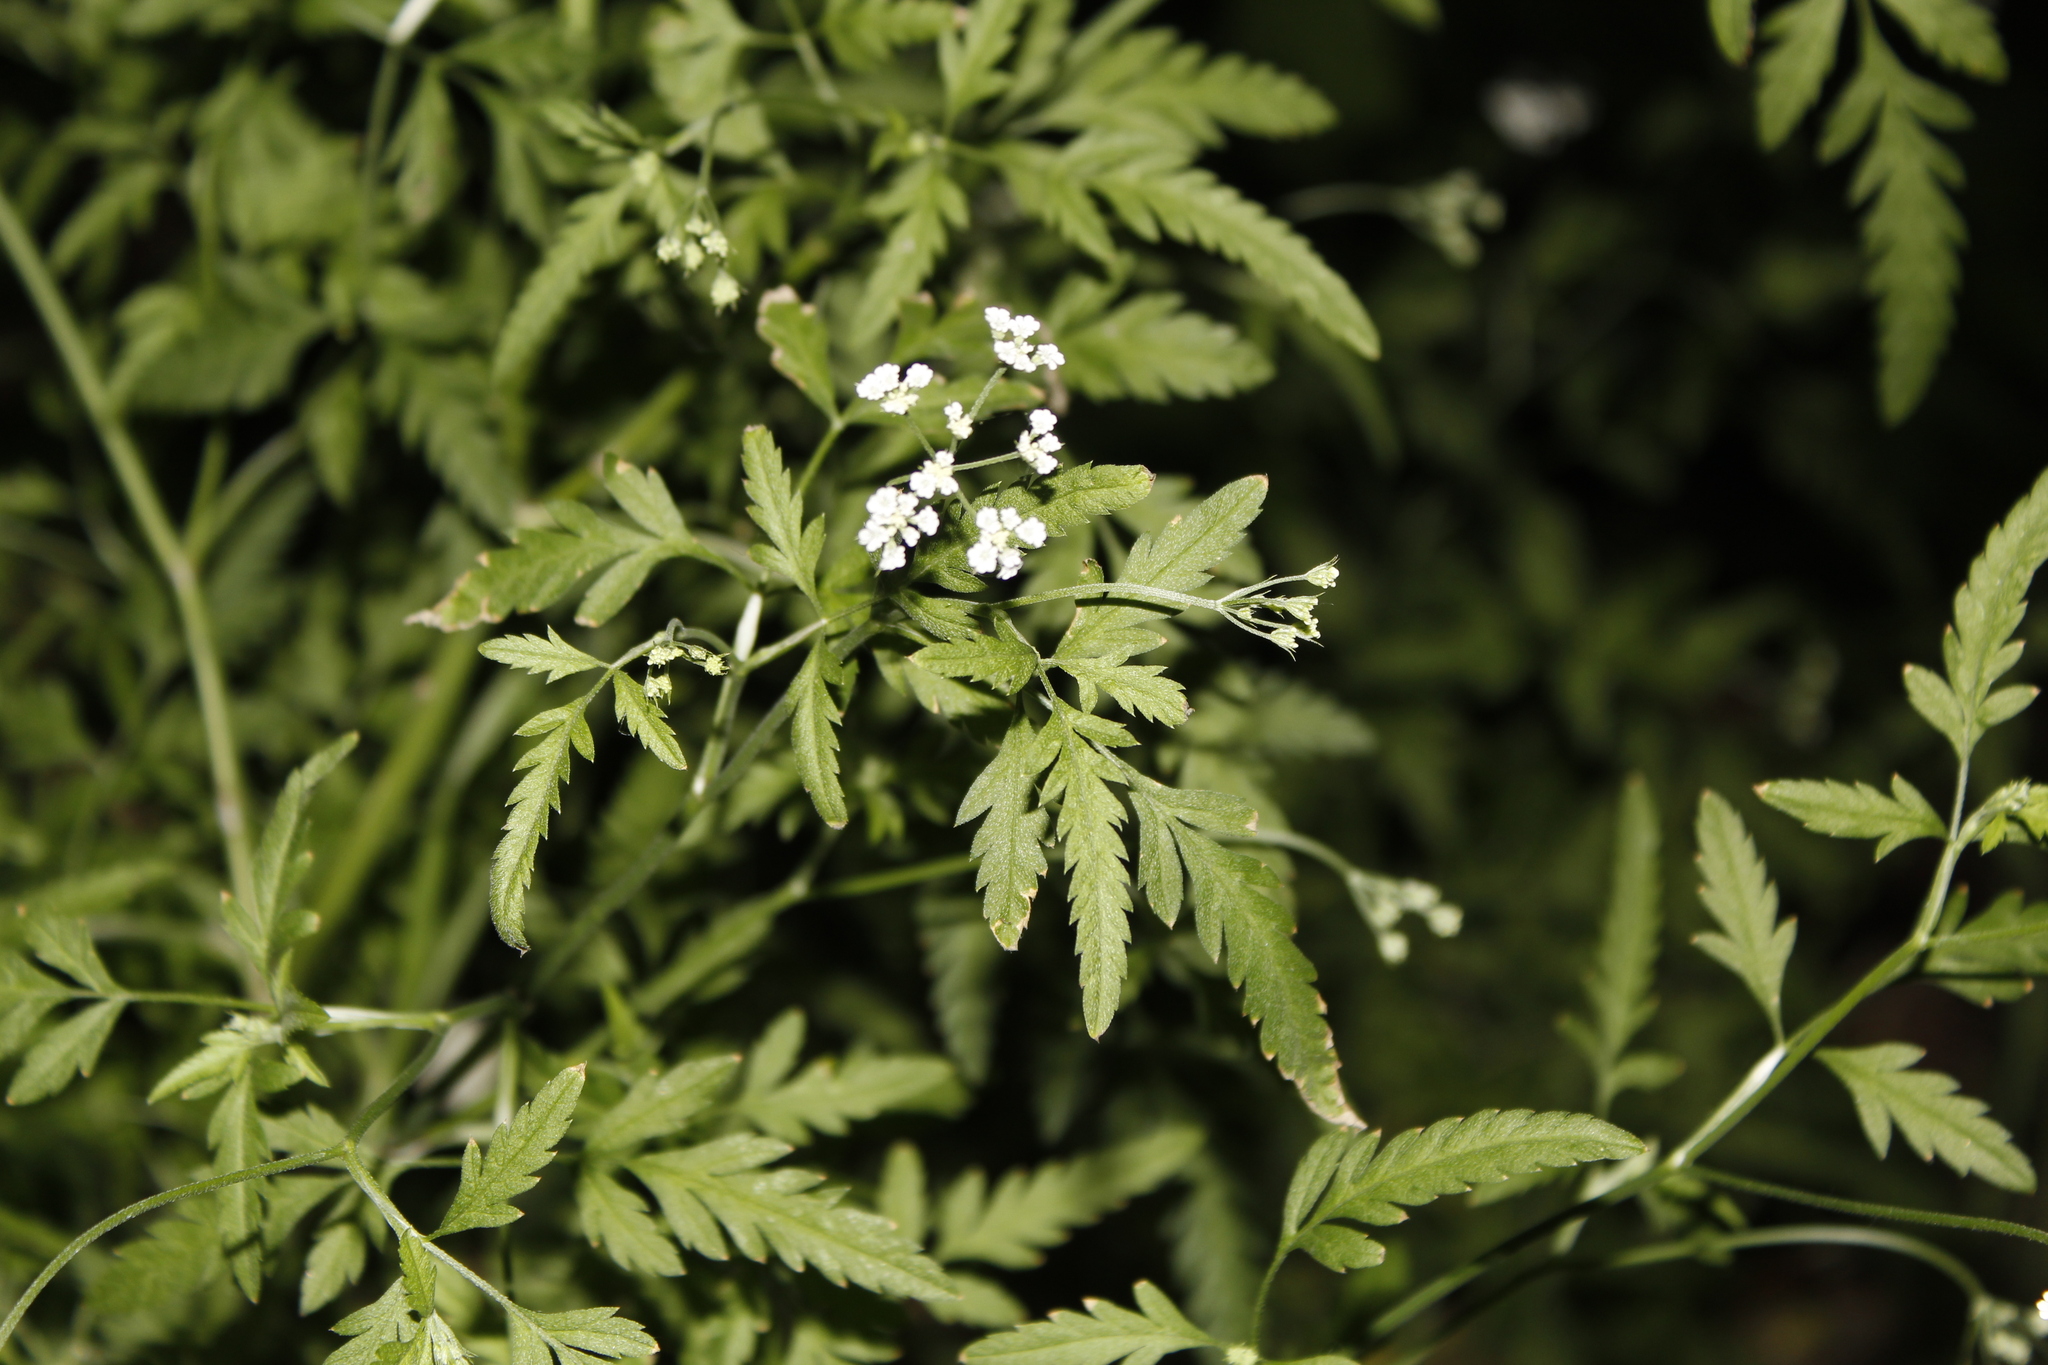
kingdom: Plantae
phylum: Tracheophyta
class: Magnoliopsida
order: Apiales
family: Apiaceae
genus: Torilis
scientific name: Torilis arvensis
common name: Spreading hedge-parsley
